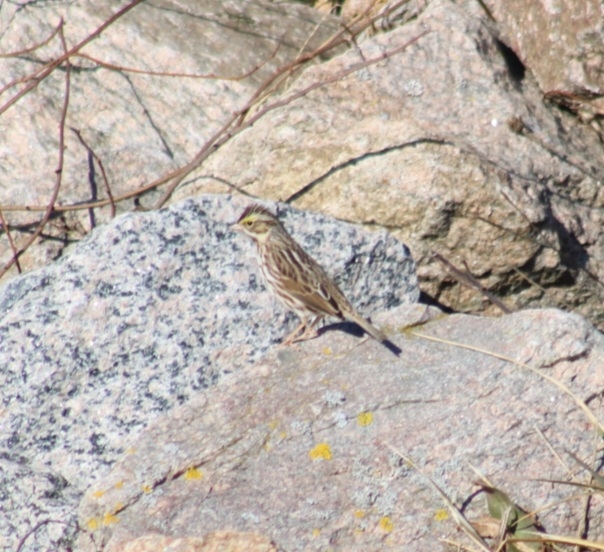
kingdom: Animalia
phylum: Chordata
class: Aves
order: Passeriformes
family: Passerellidae
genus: Passerculus
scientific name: Passerculus sandwichensis
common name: Savannah sparrow
